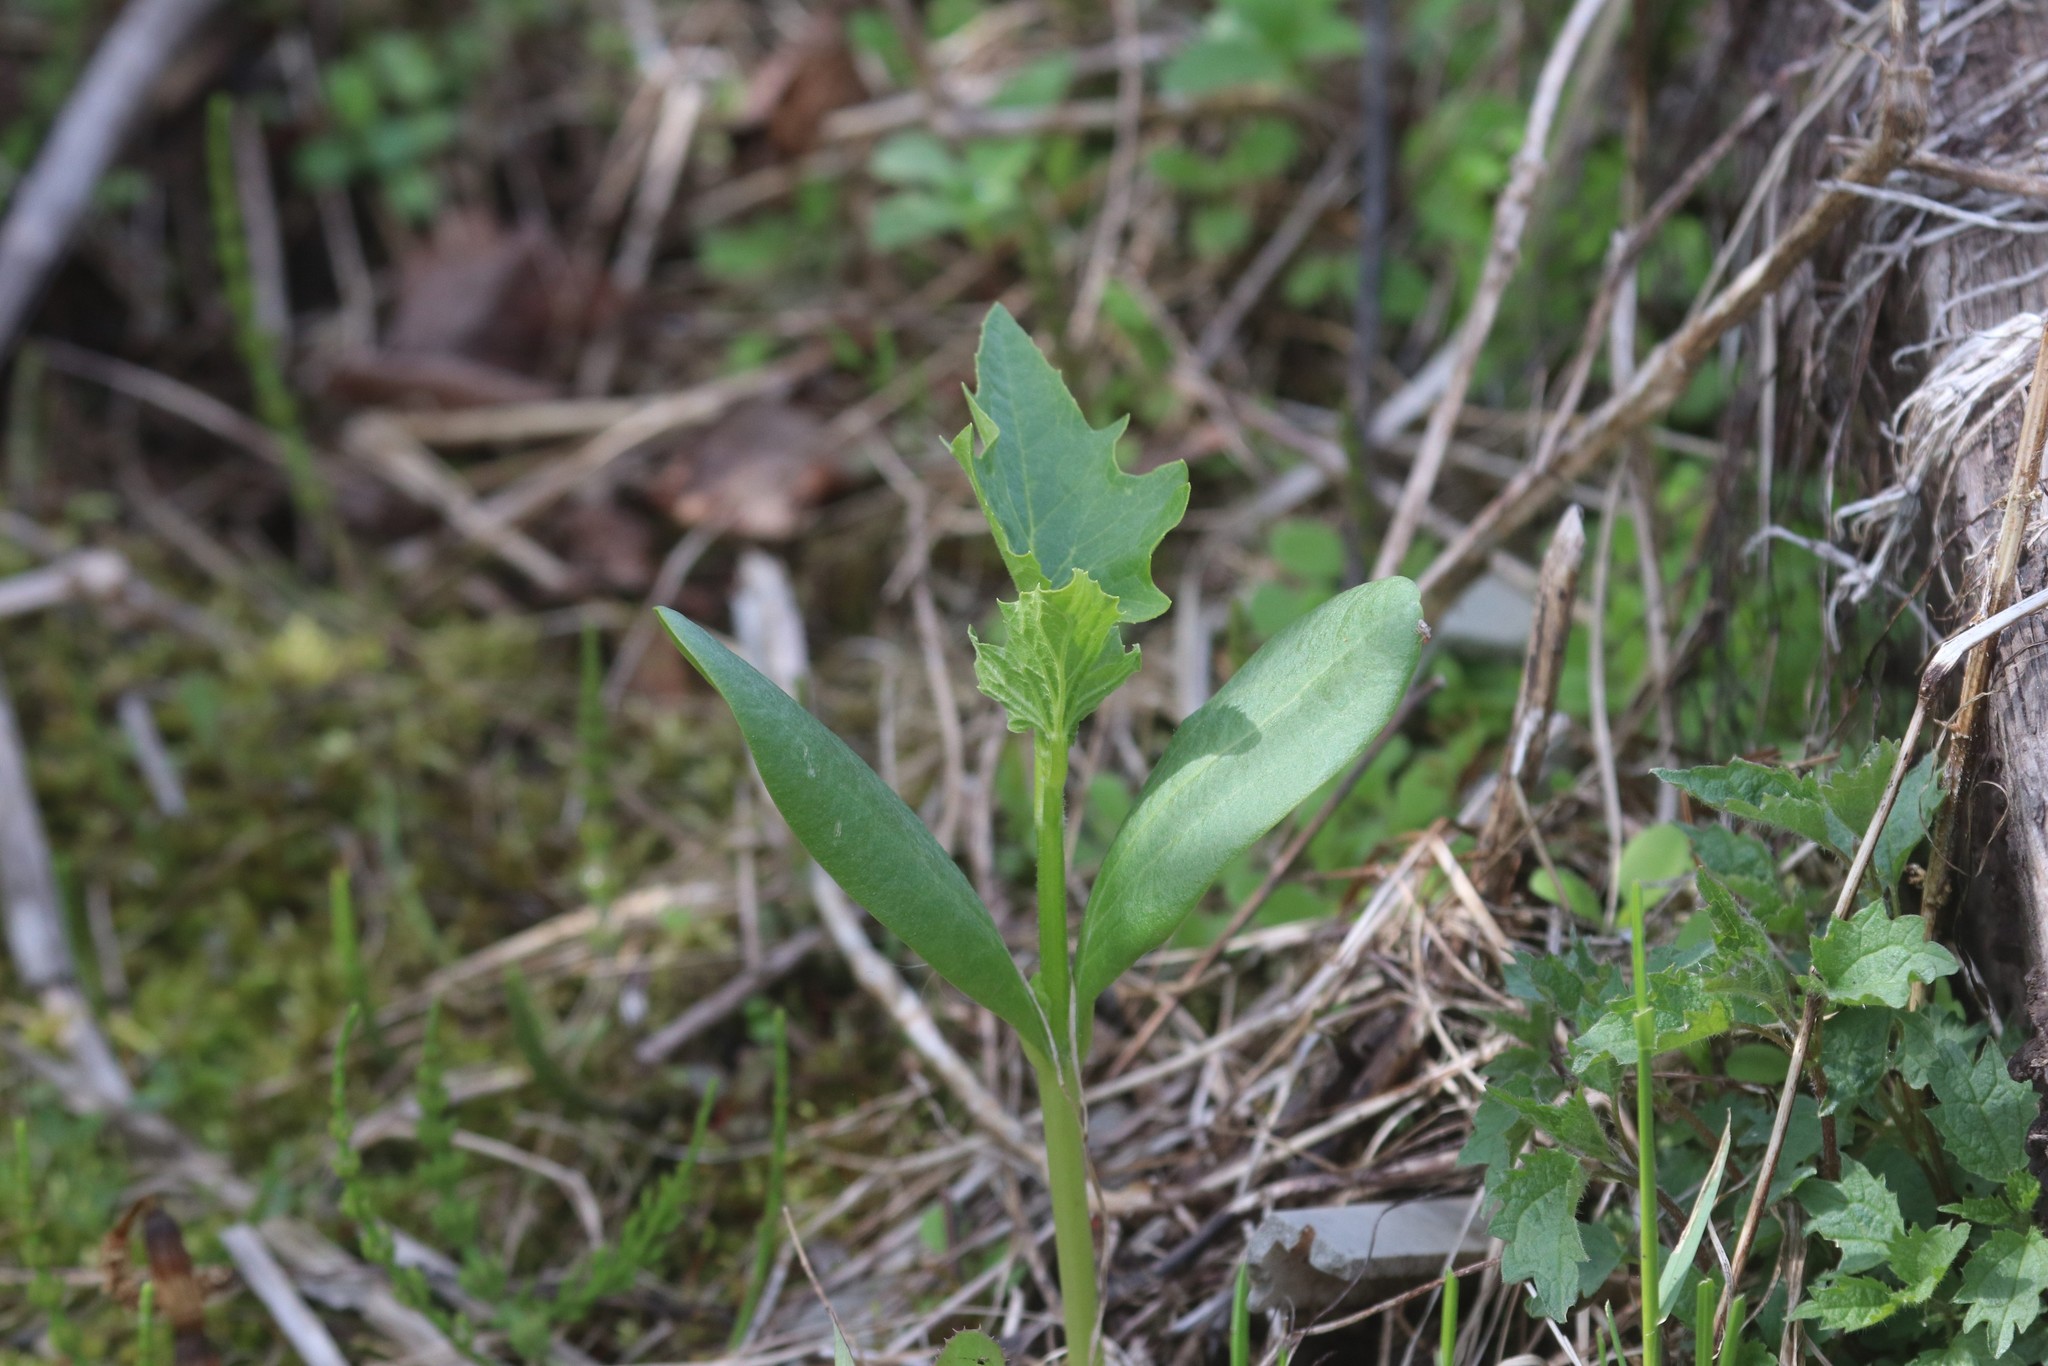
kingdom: Plantae
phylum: Tracheophyta
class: Magnoliopsida
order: Cucurbitales
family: Cucurbitaceae
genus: Echinocystis
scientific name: Echinocystis lobata
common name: Wild cucumber
